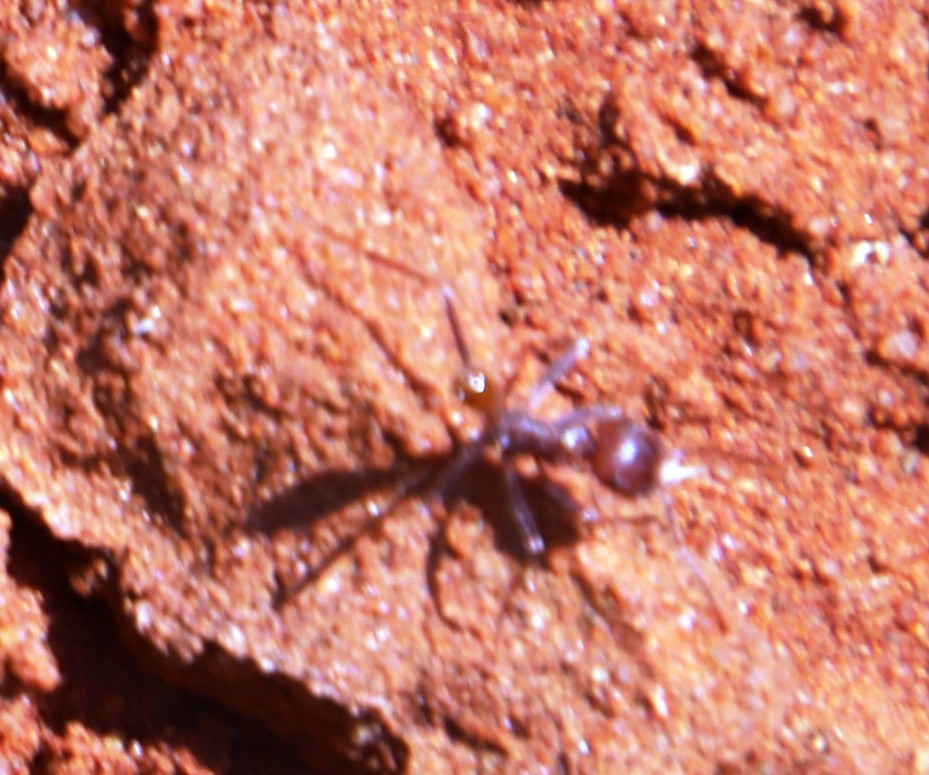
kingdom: Animalia
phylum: Arthropoda
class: Insecta
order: Hymenoptera
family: Formicidae
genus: Ocymyrmex
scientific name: Ocymyrmex flaviventris
